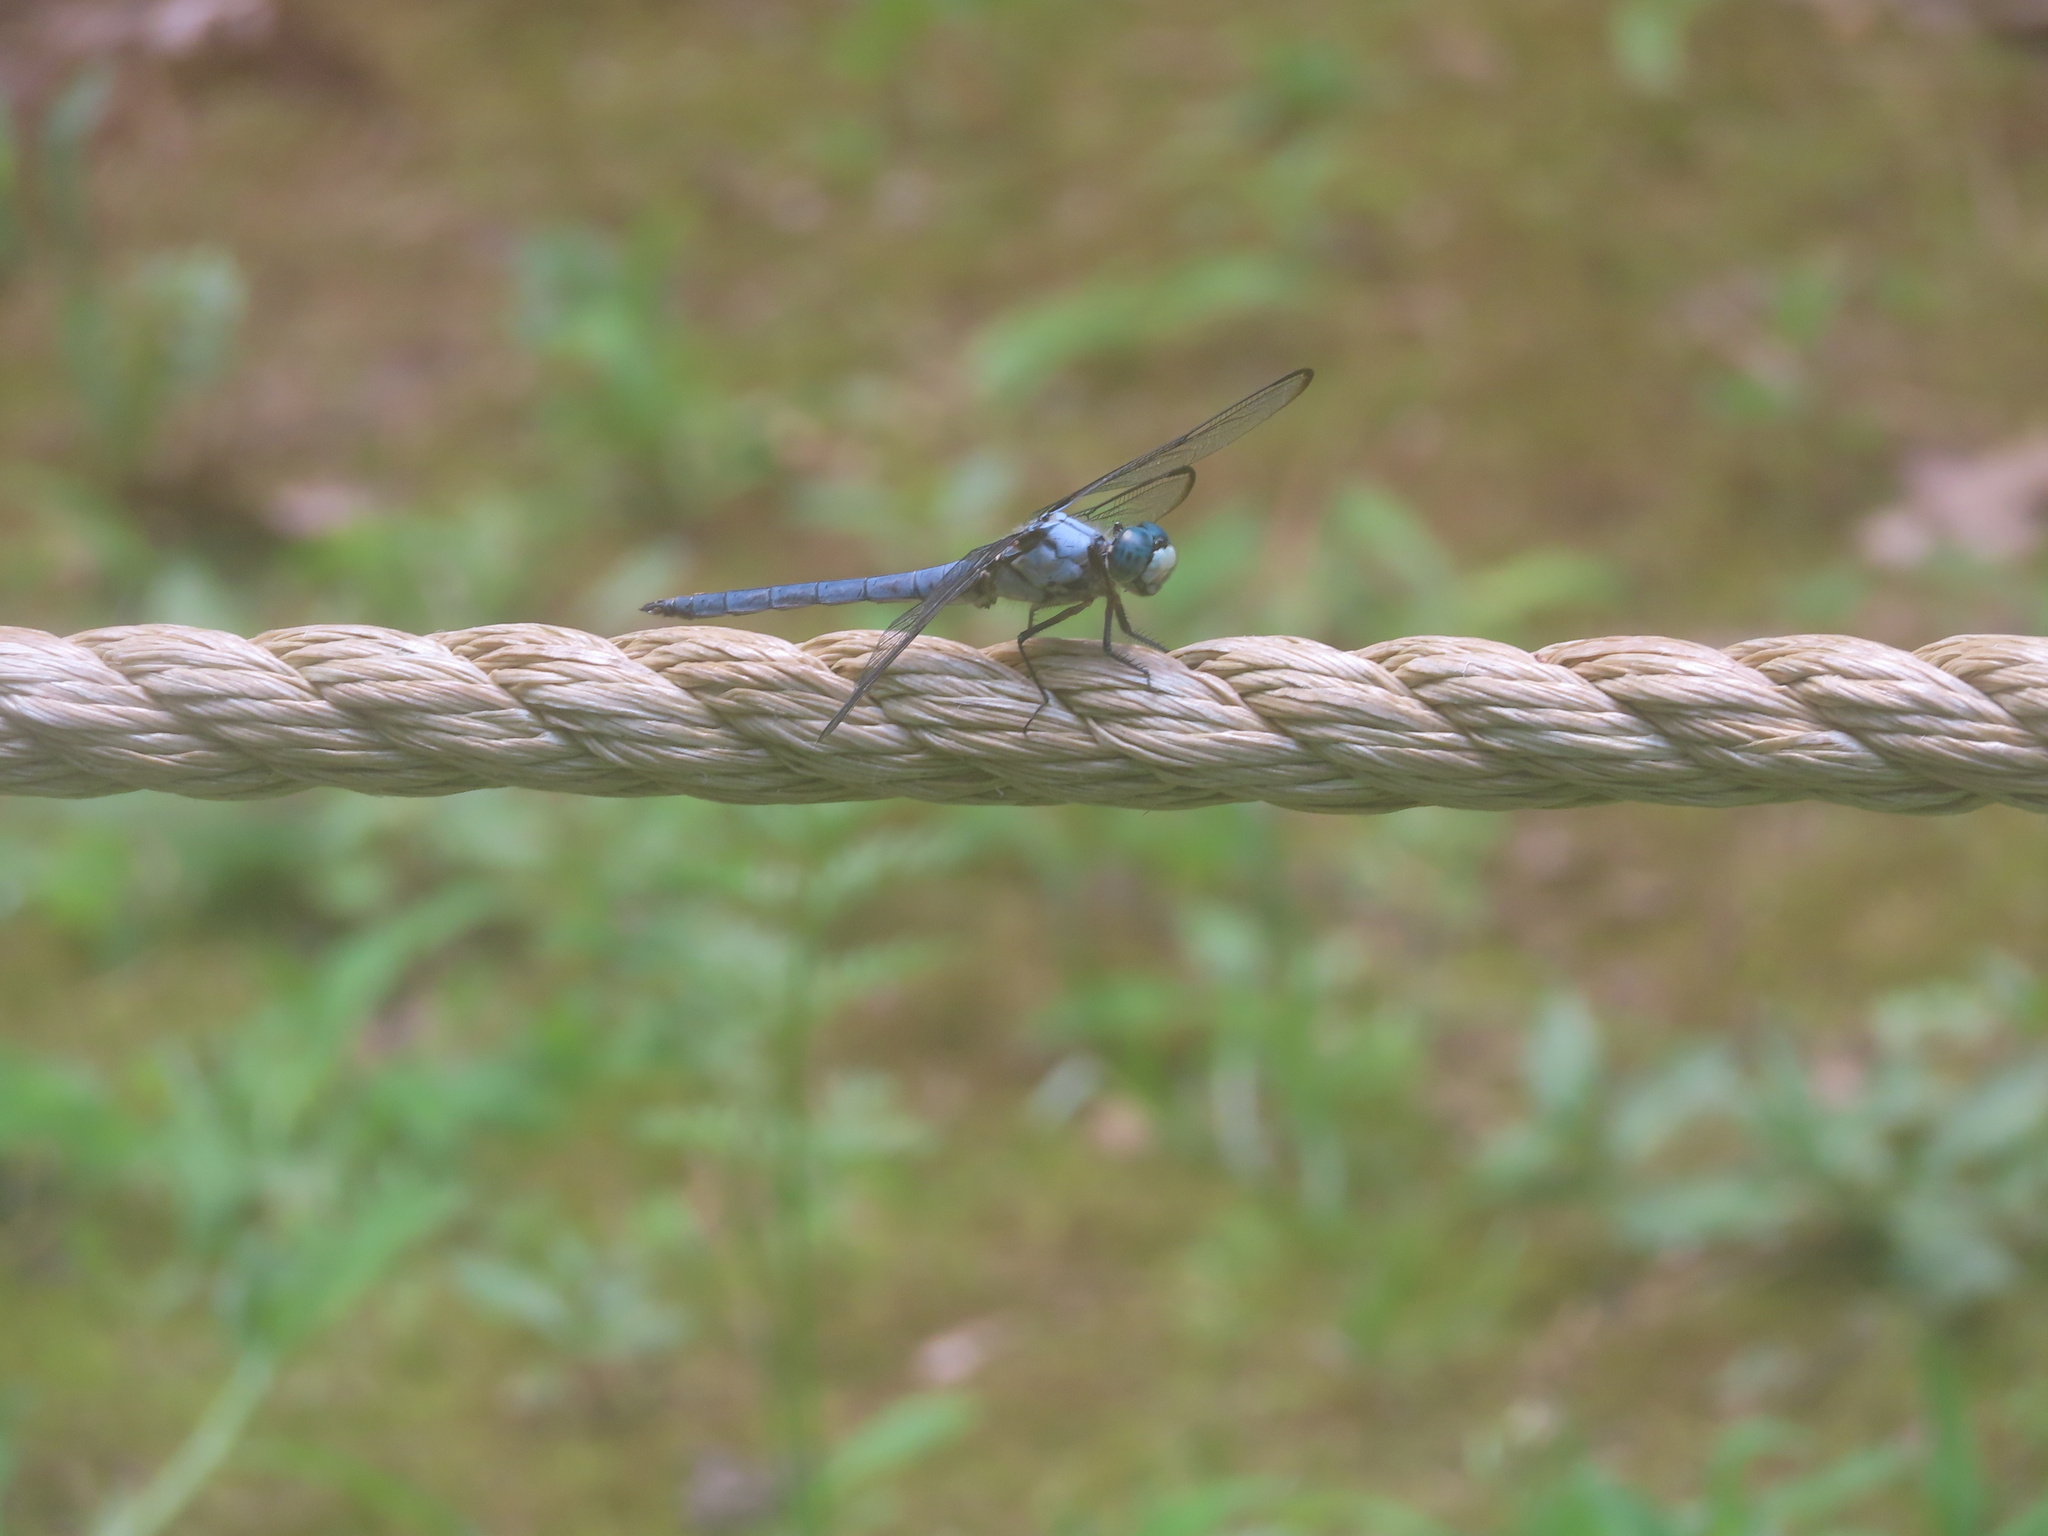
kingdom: Animalia
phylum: Arthropoda
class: Insecta
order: Odonata
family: Libellulidae
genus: Libellula
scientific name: Libellula vibrans
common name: Great blue skimmer
